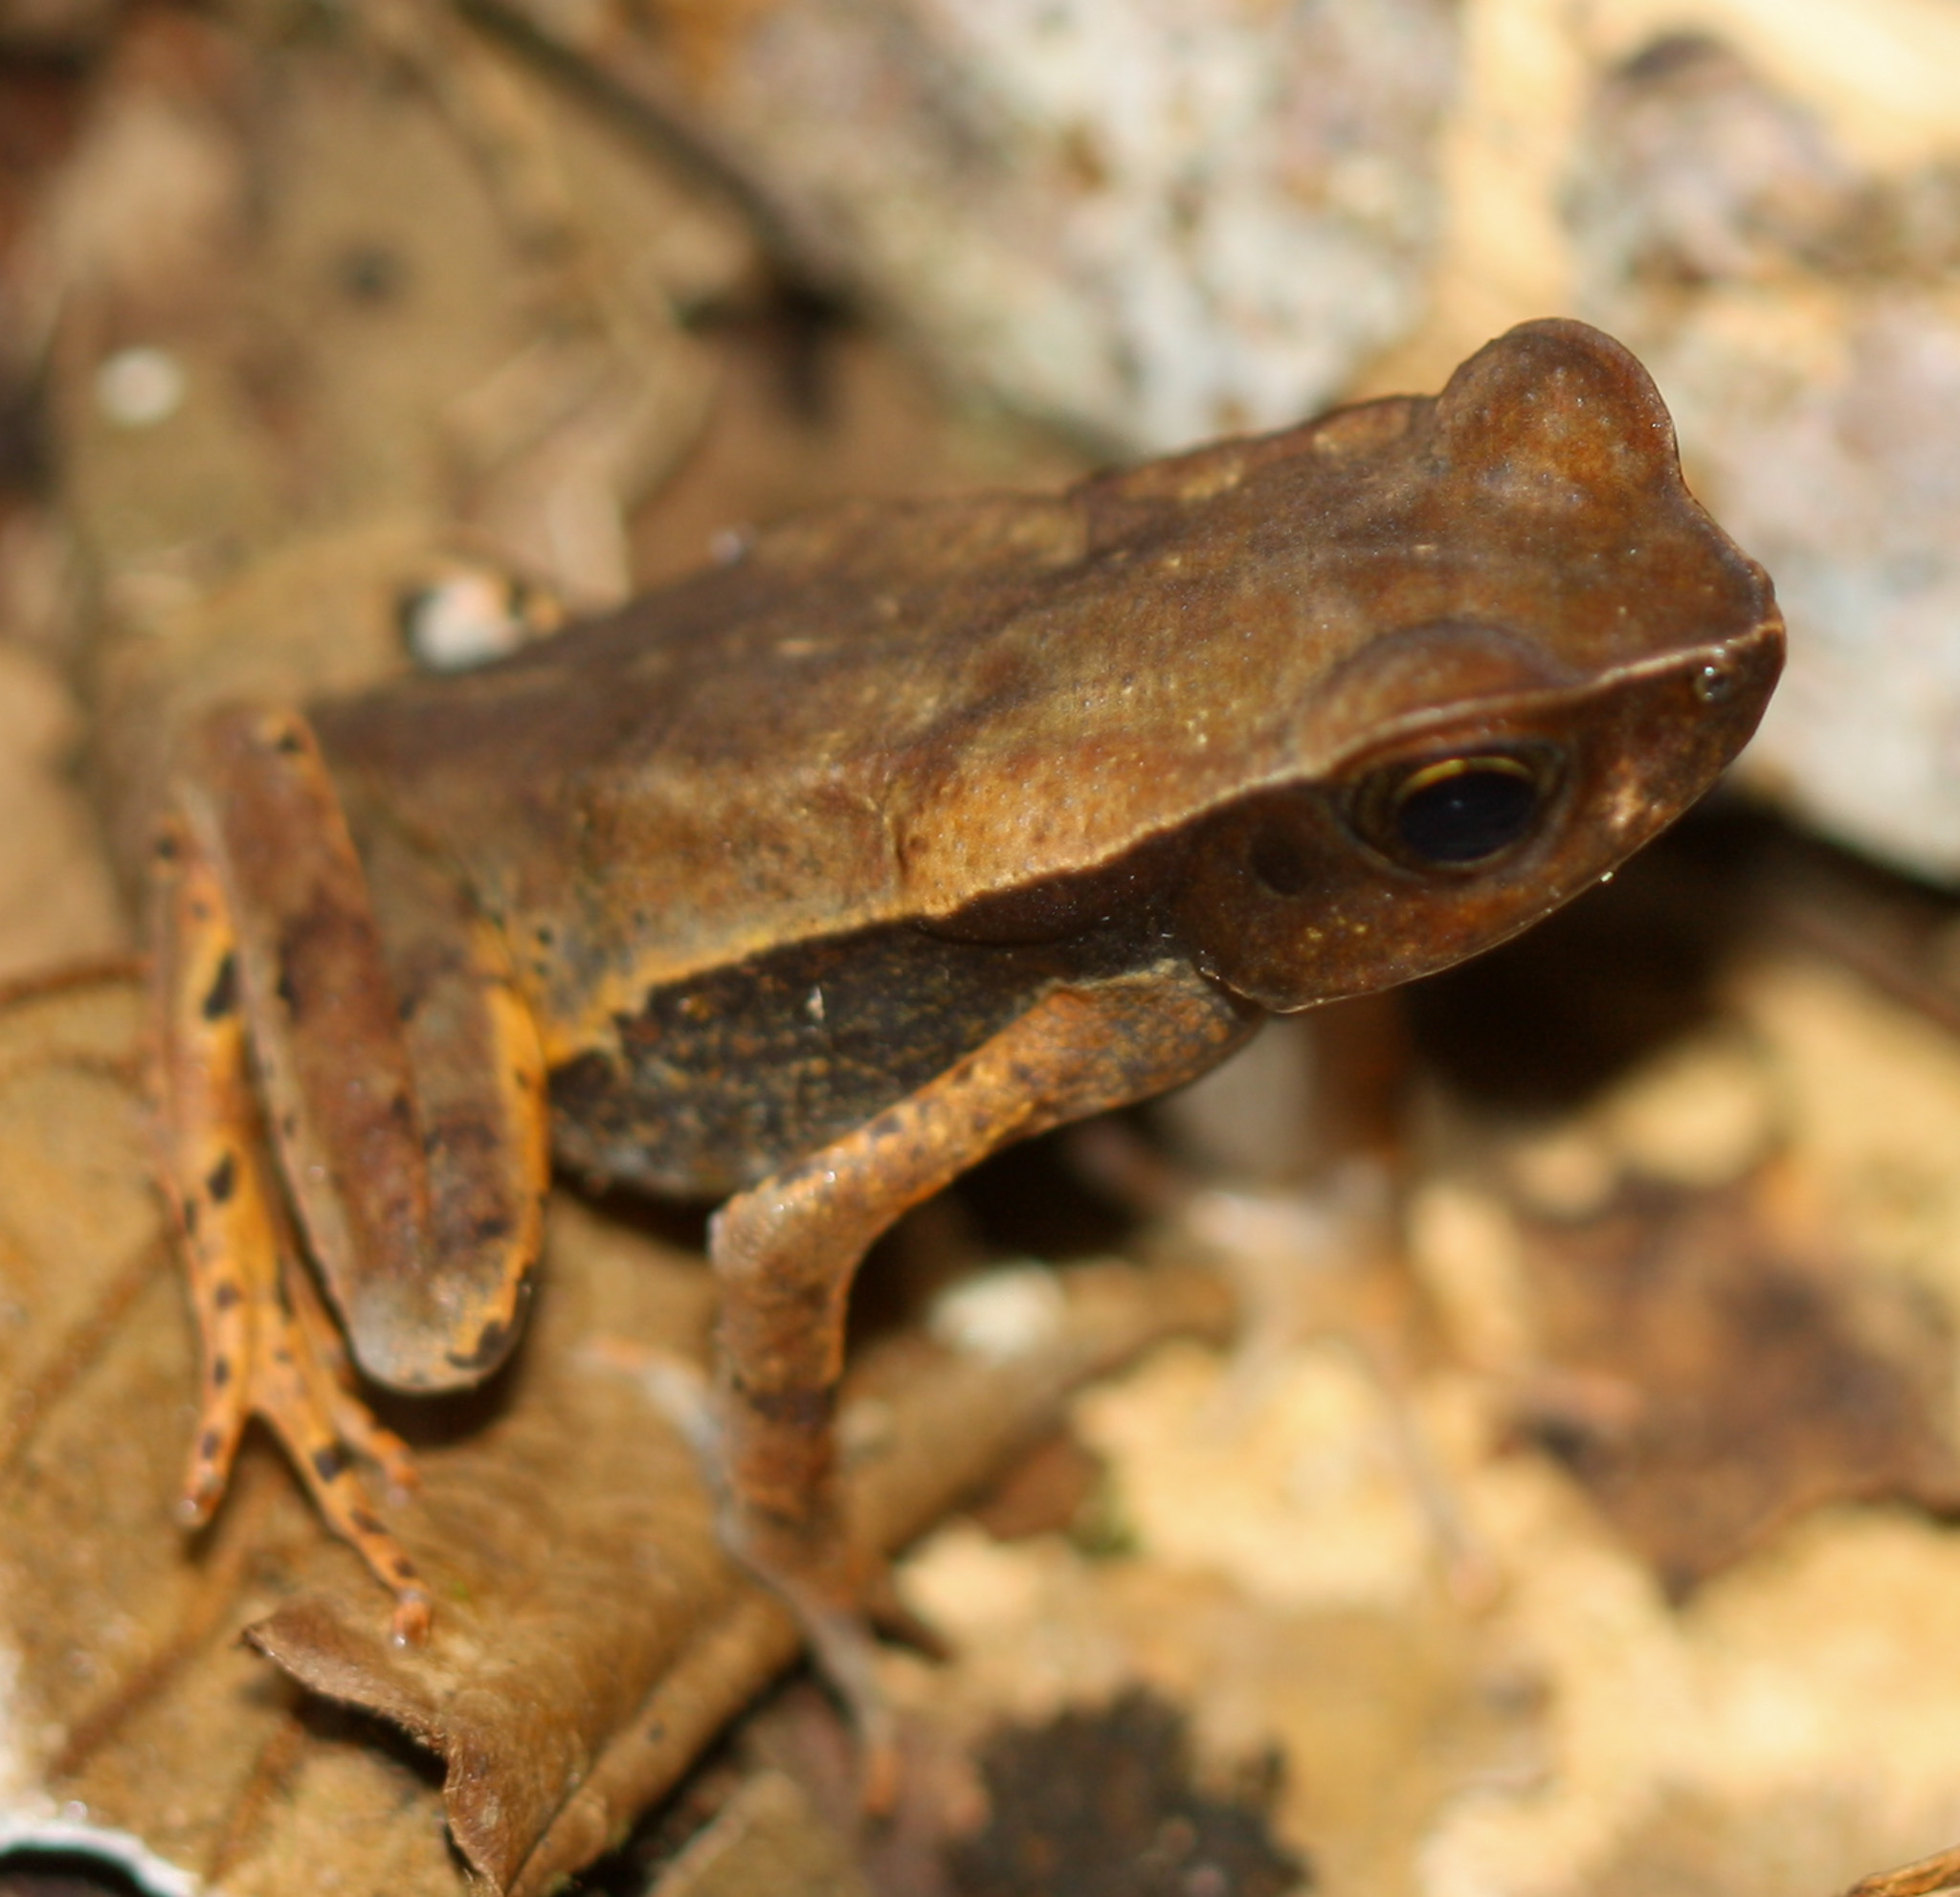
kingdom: Animalia
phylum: Chordata
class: Amphibia
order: Anura
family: Bufonidae
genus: Rhaebo
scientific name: Rhaebo haematiticus
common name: Truando toad
